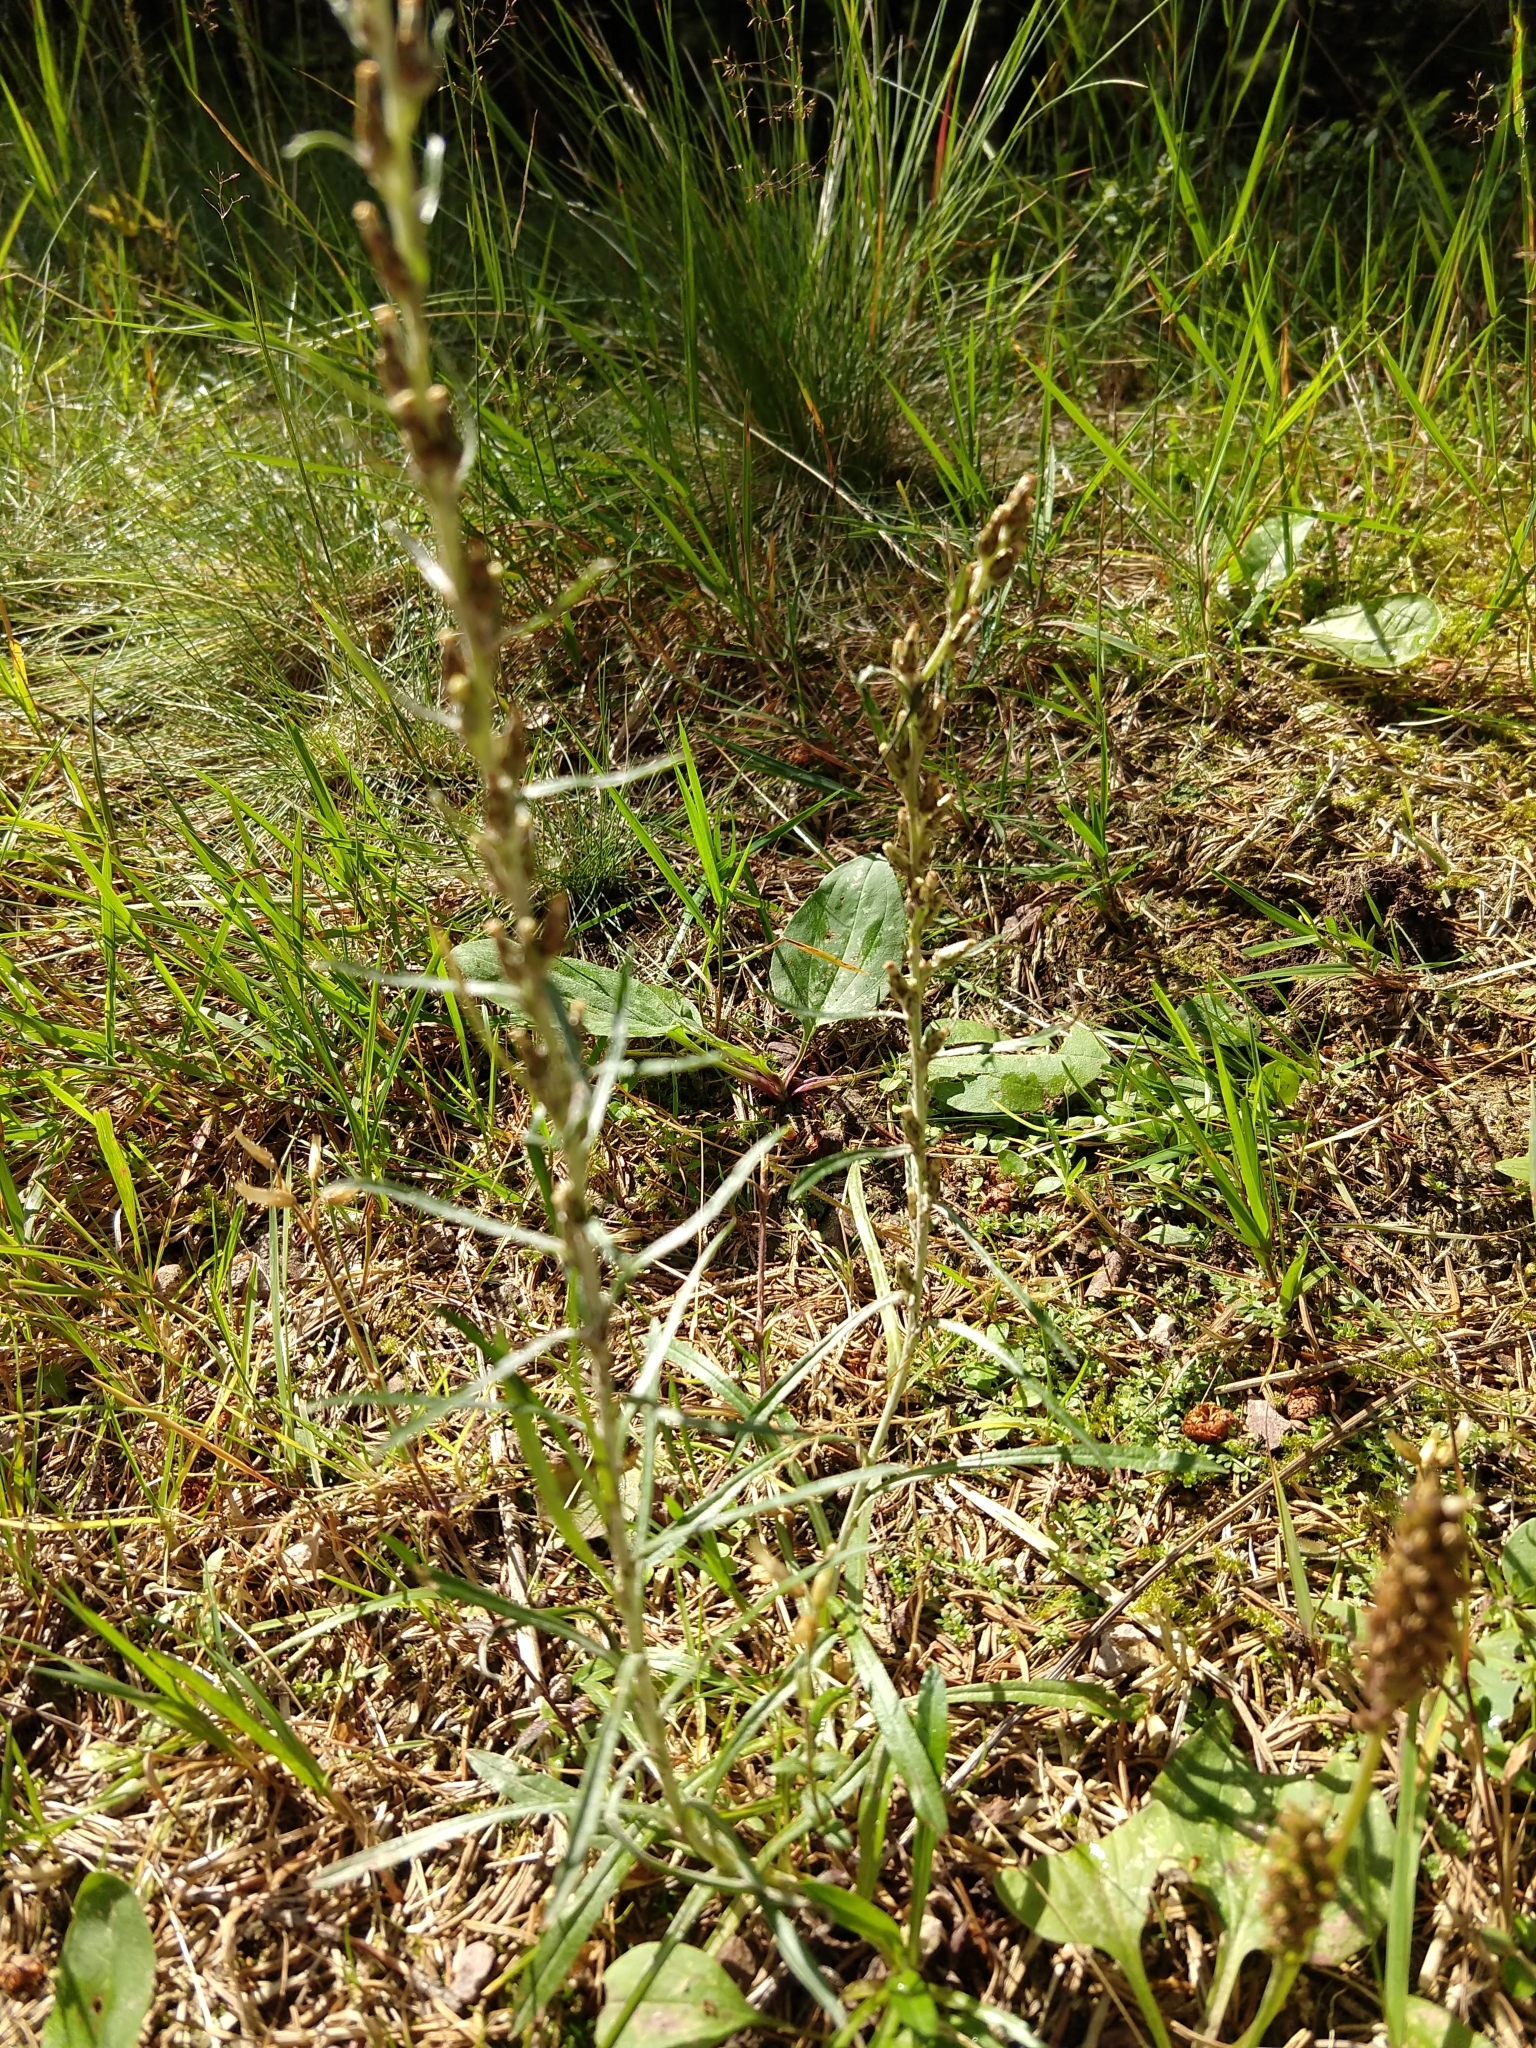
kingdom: Plantae
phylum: Tracheophyta
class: Magnoliopsida
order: Asterales
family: Asteraceae
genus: Omalotheca
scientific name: Omalotheca sylvatica
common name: Heath cudweed
